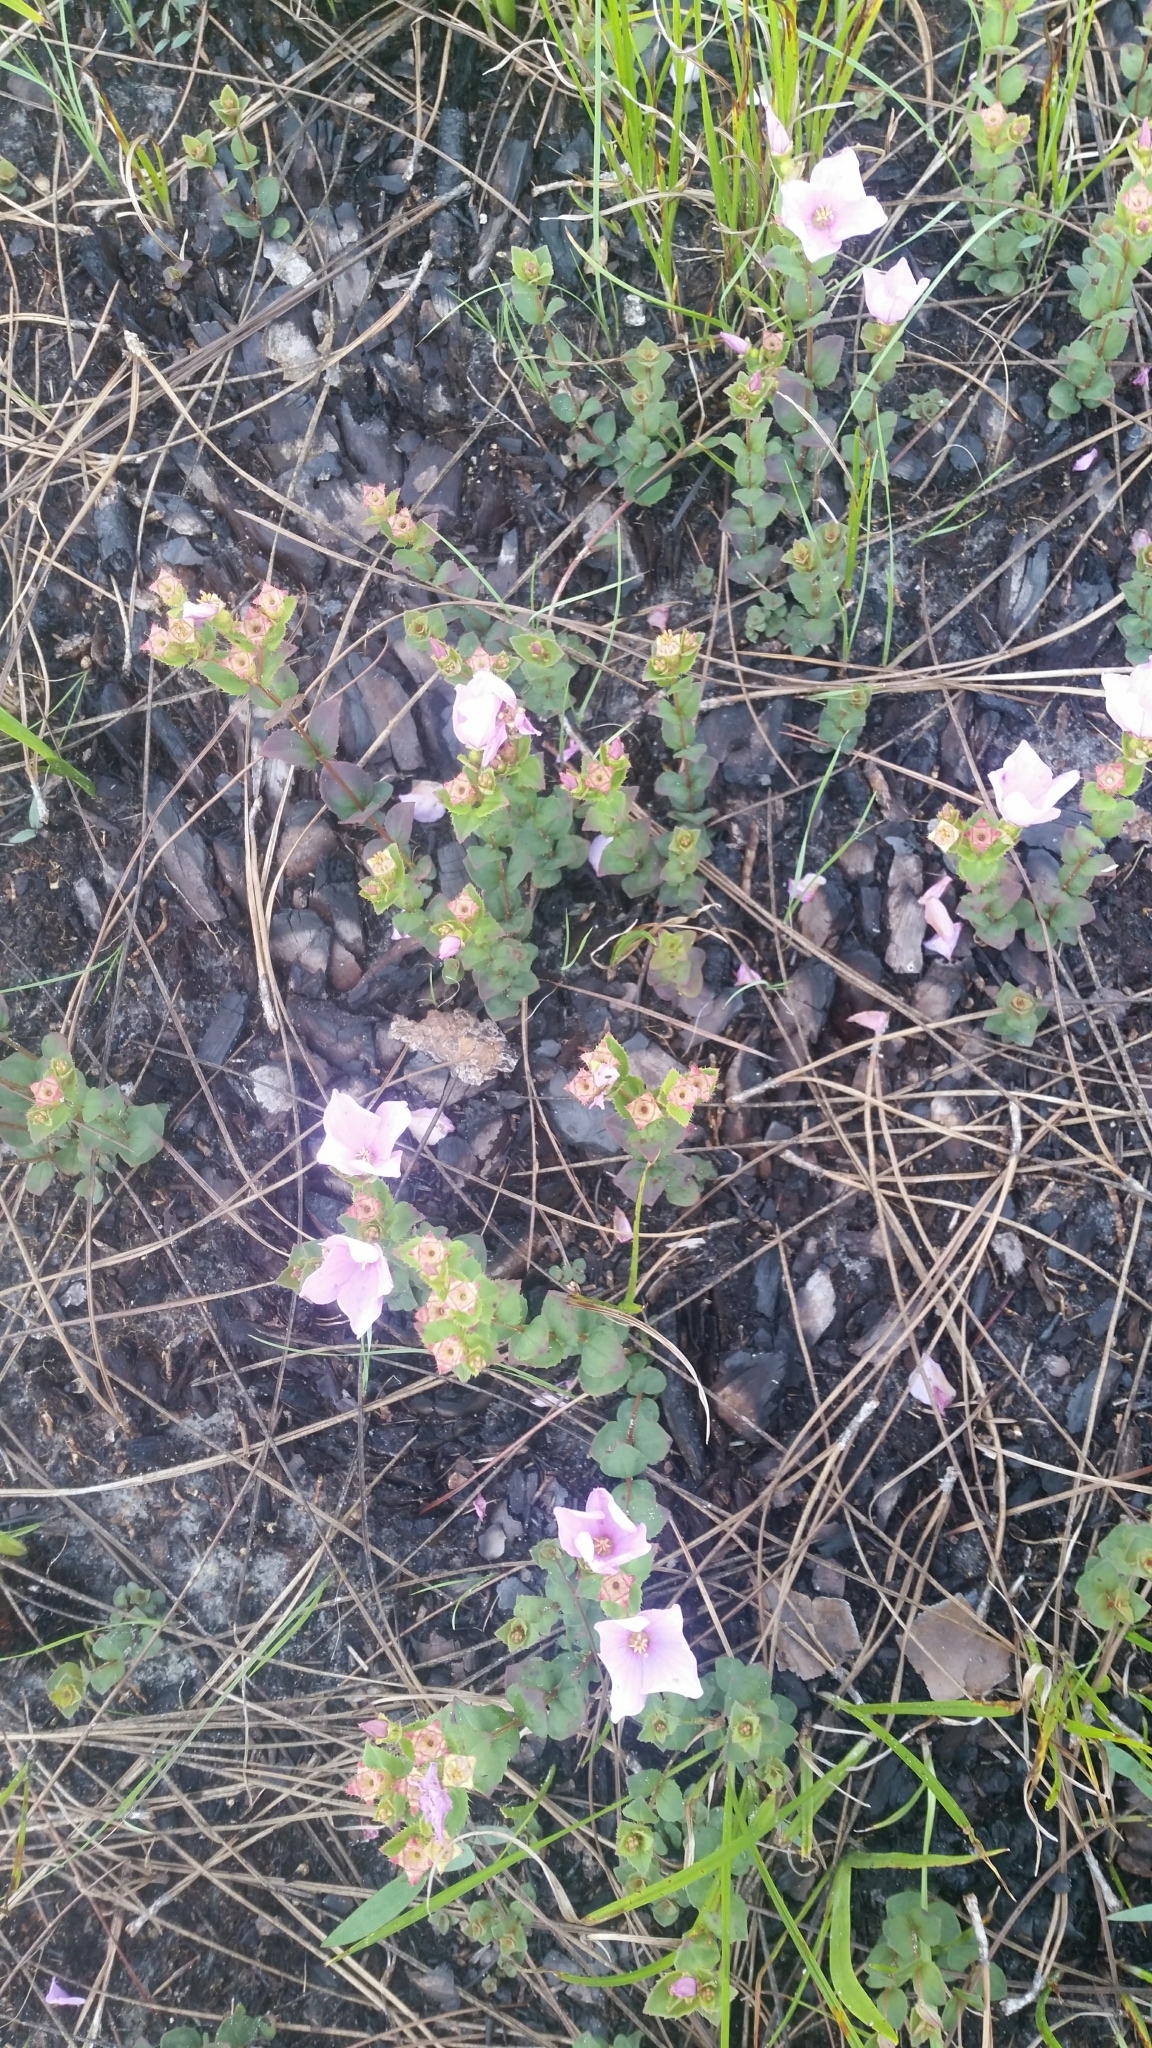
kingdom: Plantae
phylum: Tracheophyta
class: Magnoliopsida
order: Myrtales
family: Melastomataceae
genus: Rhexia
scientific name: Rhexia nuttallii
